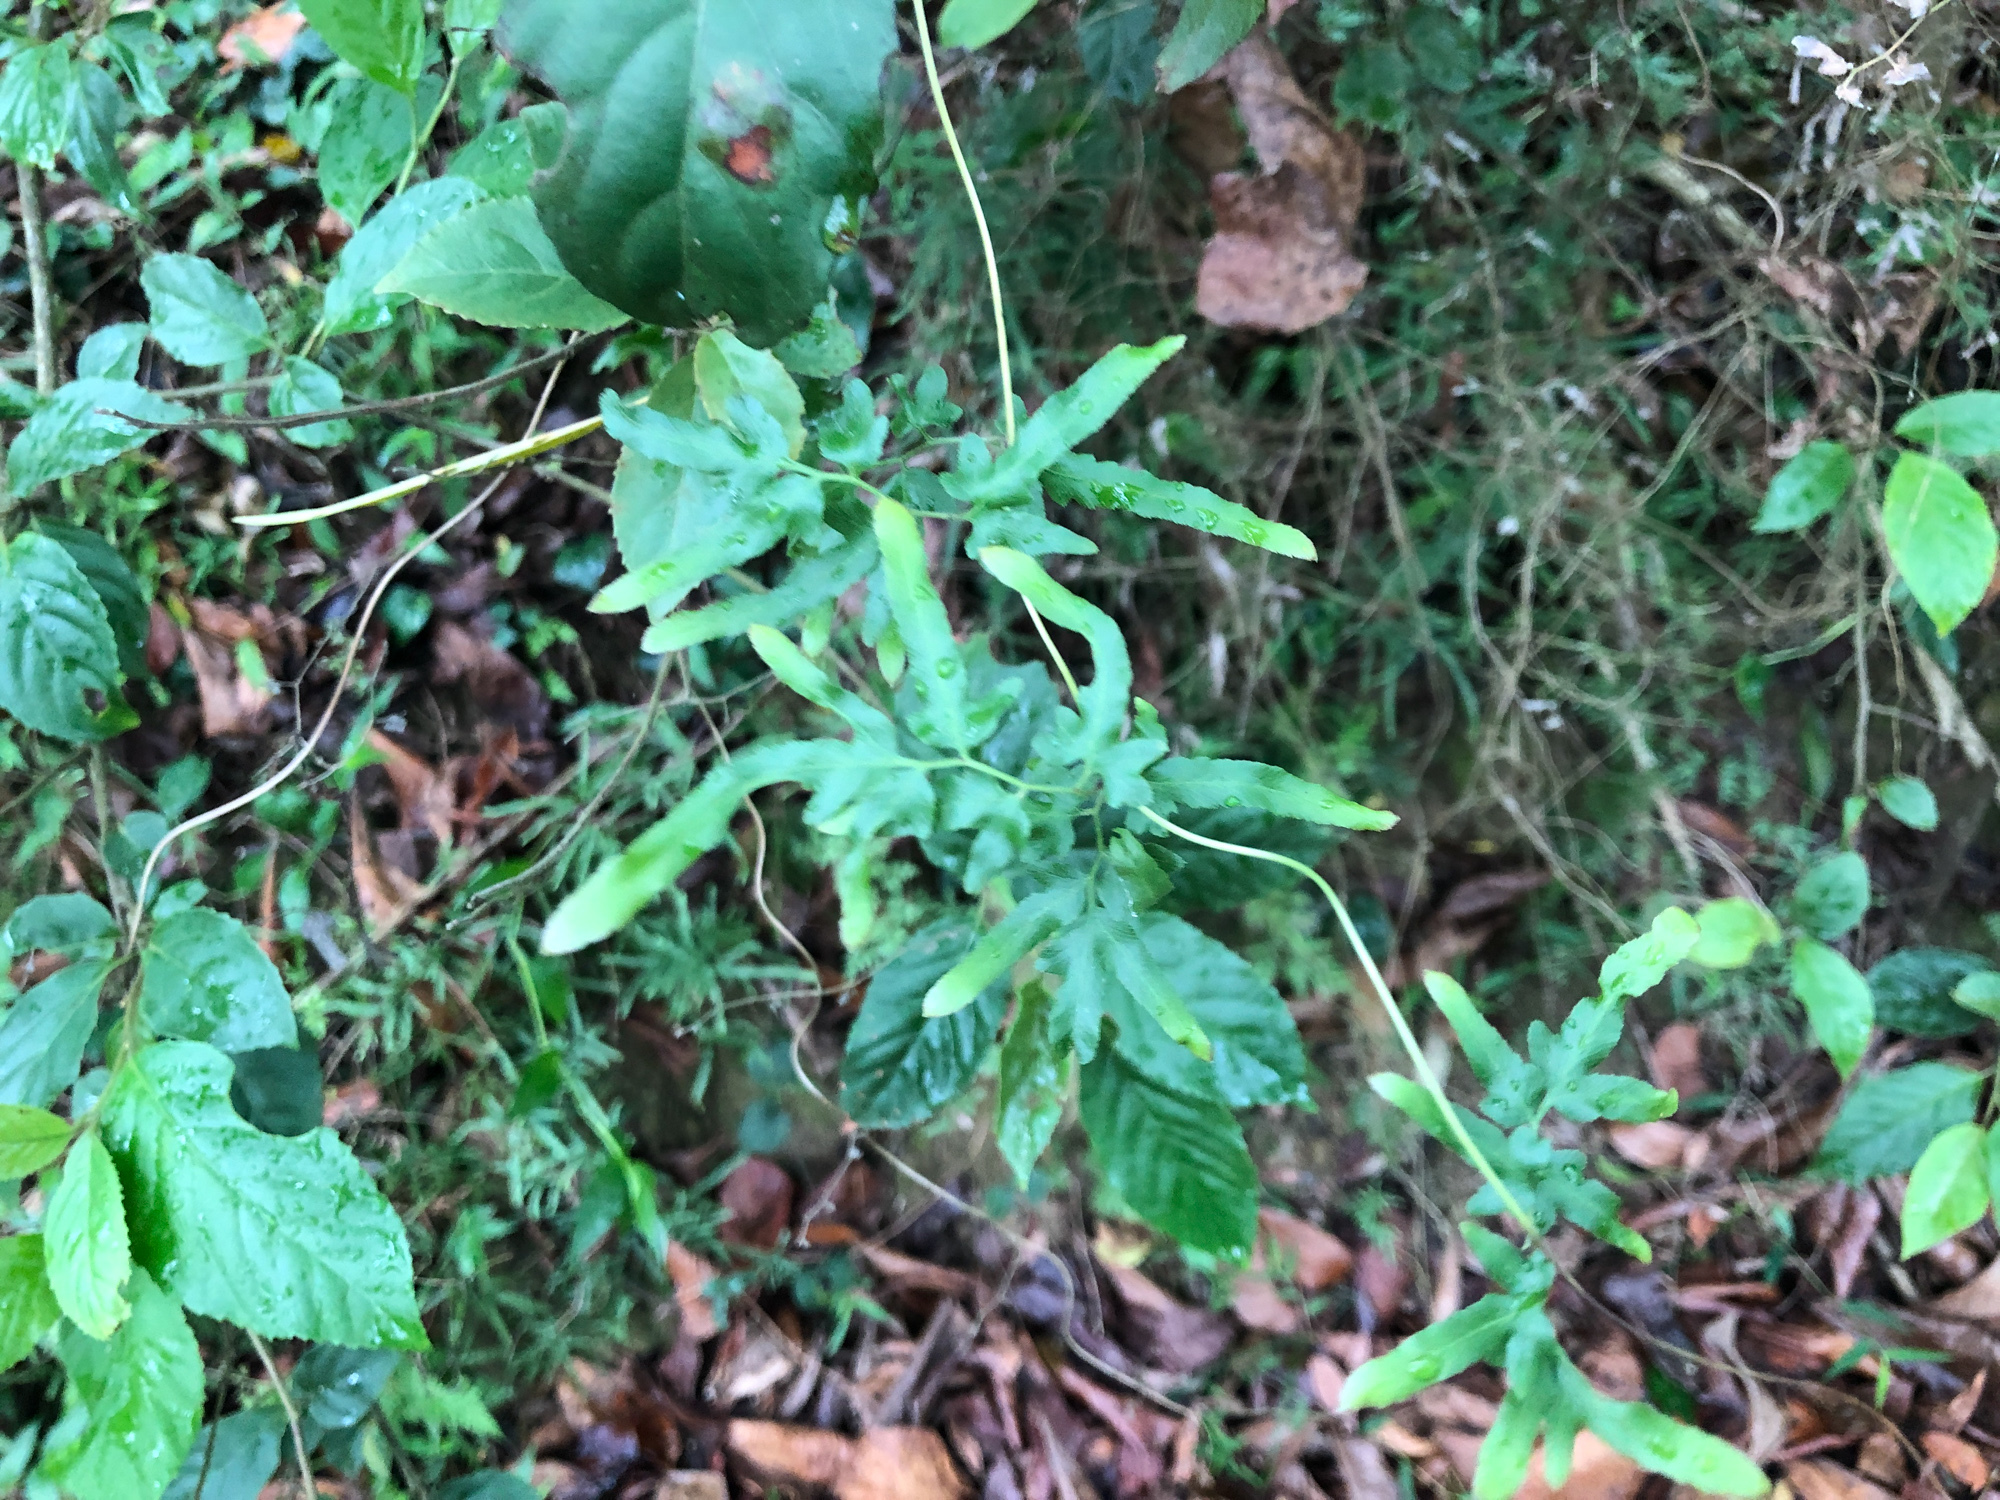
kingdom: Plantae
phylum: Tracheophyta
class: Polypodiopsida
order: Schizaeales
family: Lygodiaceae
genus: Lygodium
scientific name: Lygodium japonicum
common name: Japanese climbing fern
